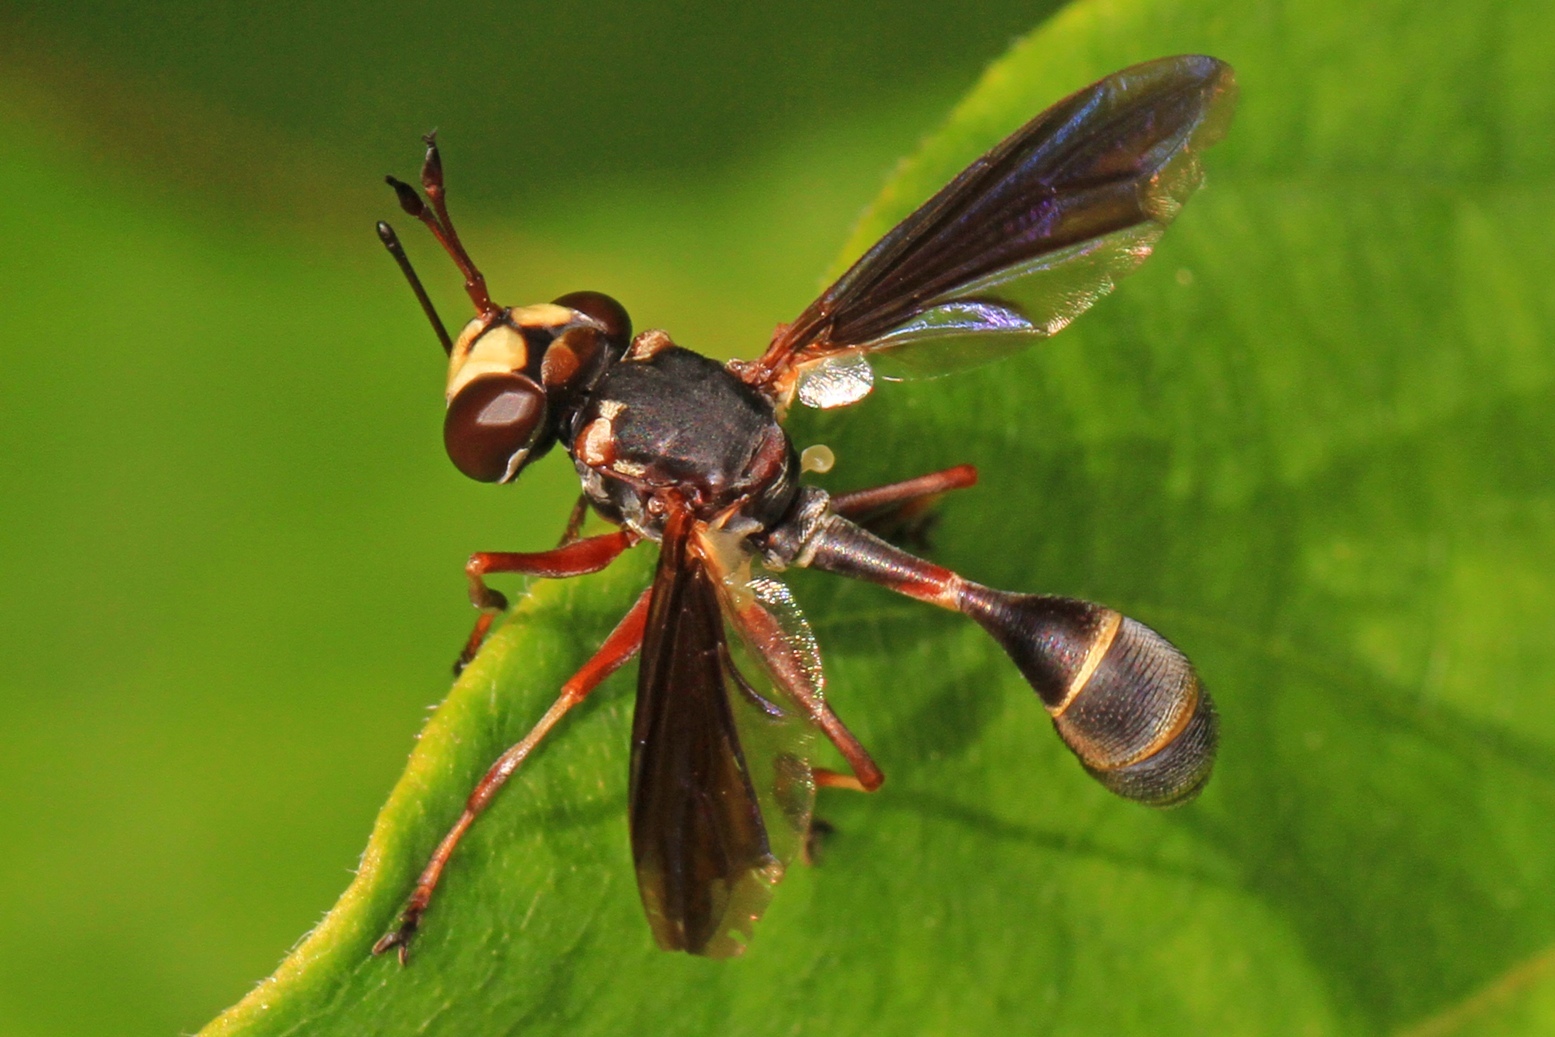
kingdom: Animalia
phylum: Arthropoda
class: Insecta
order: Diptera
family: Conopidae
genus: Physocephala
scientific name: Physocephala sagittaria
